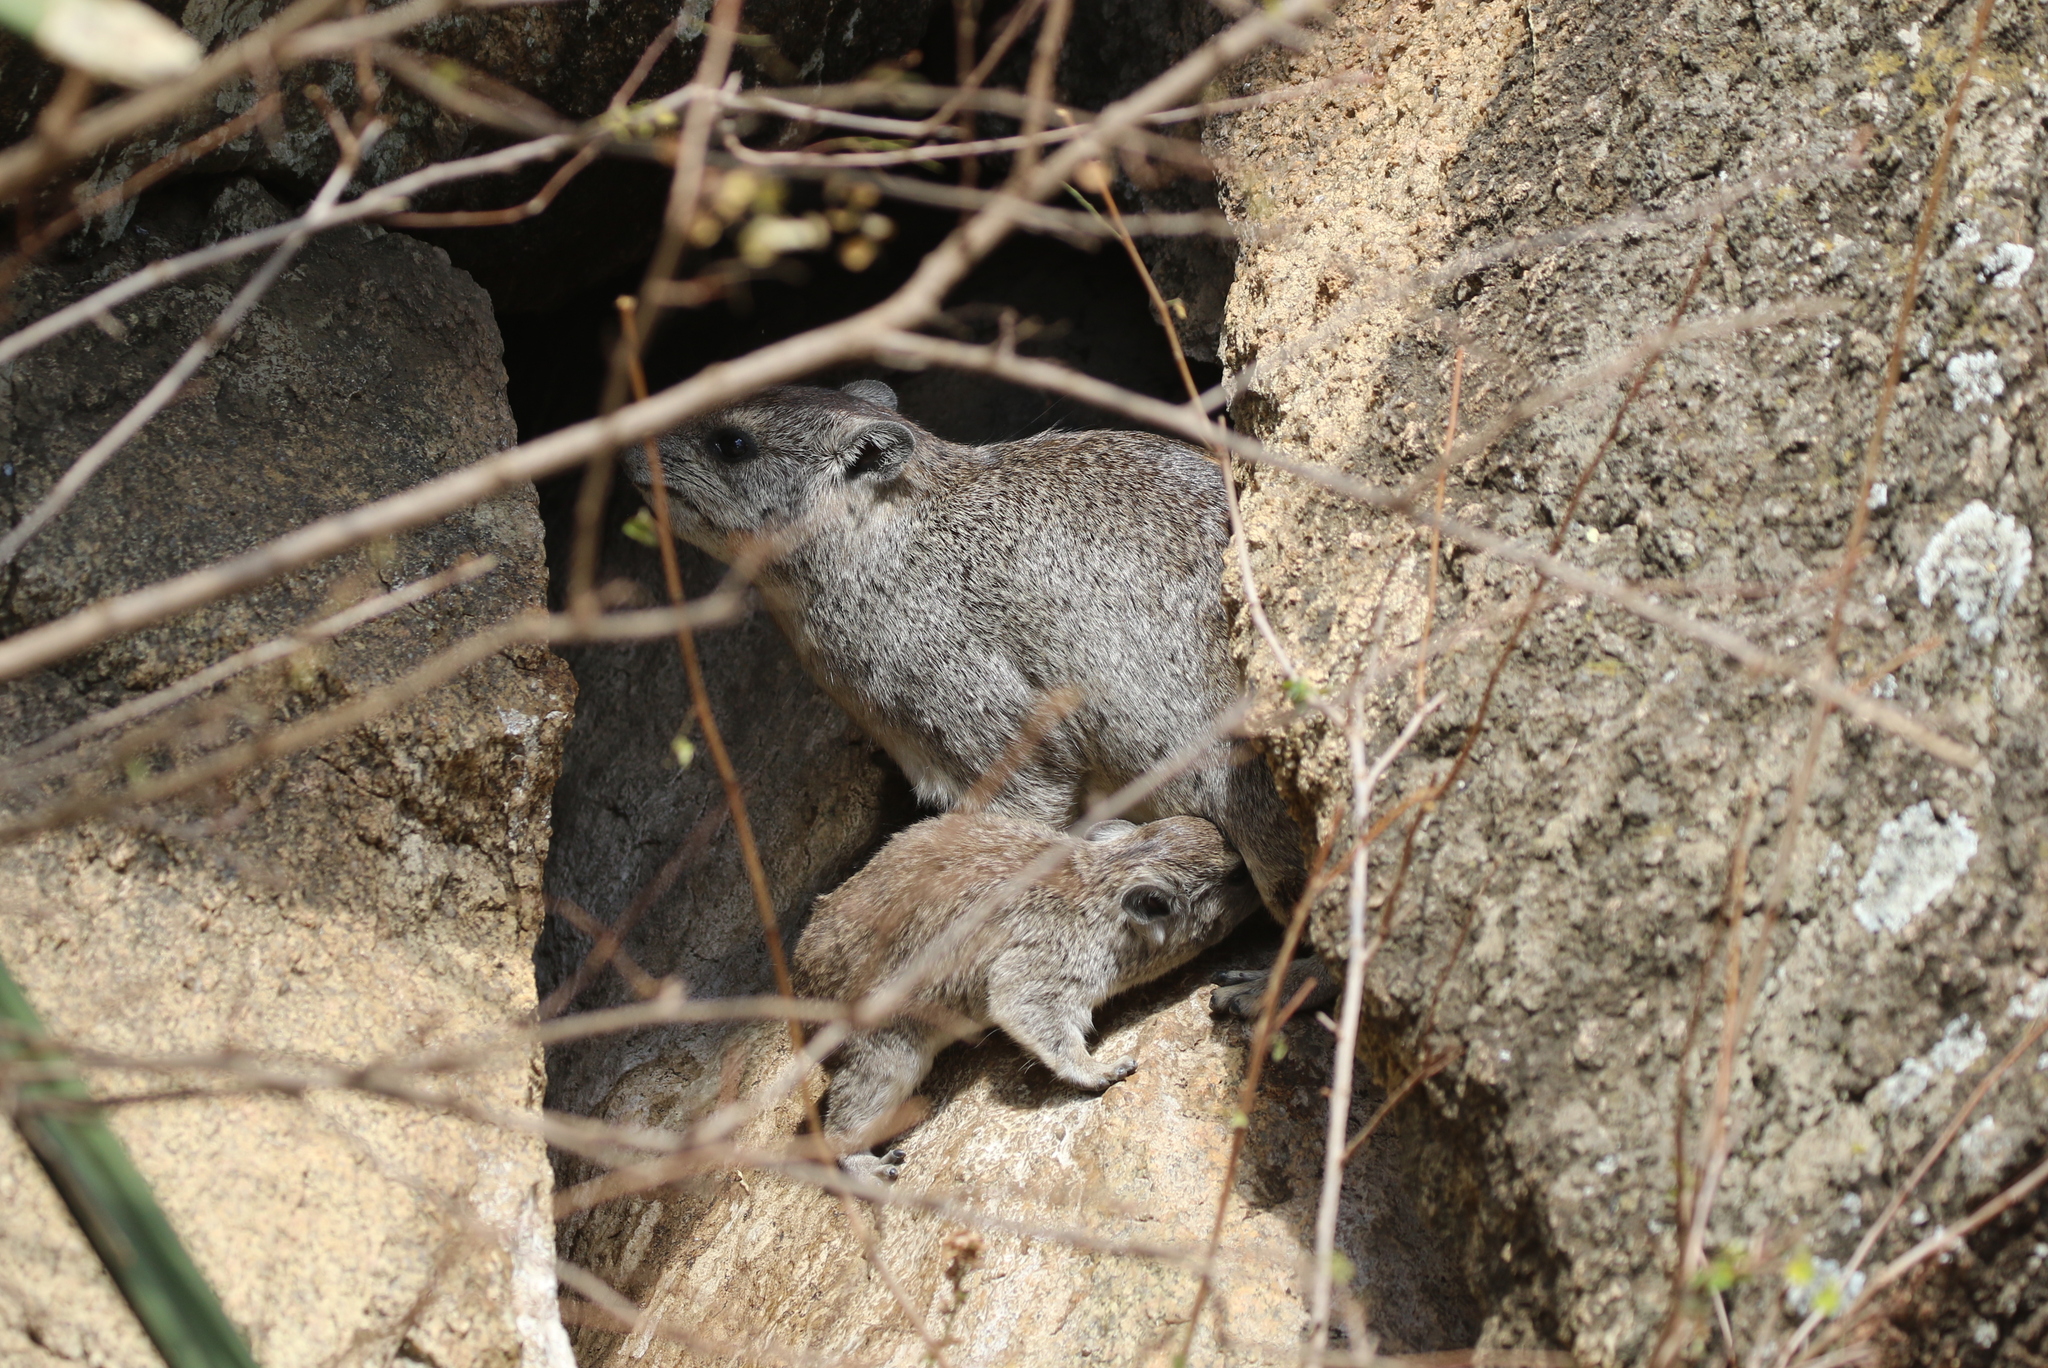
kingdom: Animalia
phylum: Chordata
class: Mammalia
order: Hyracoidea
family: Procaviidae
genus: Heterohyrax
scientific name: Heterohyrax brucei
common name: Bush hyrax
